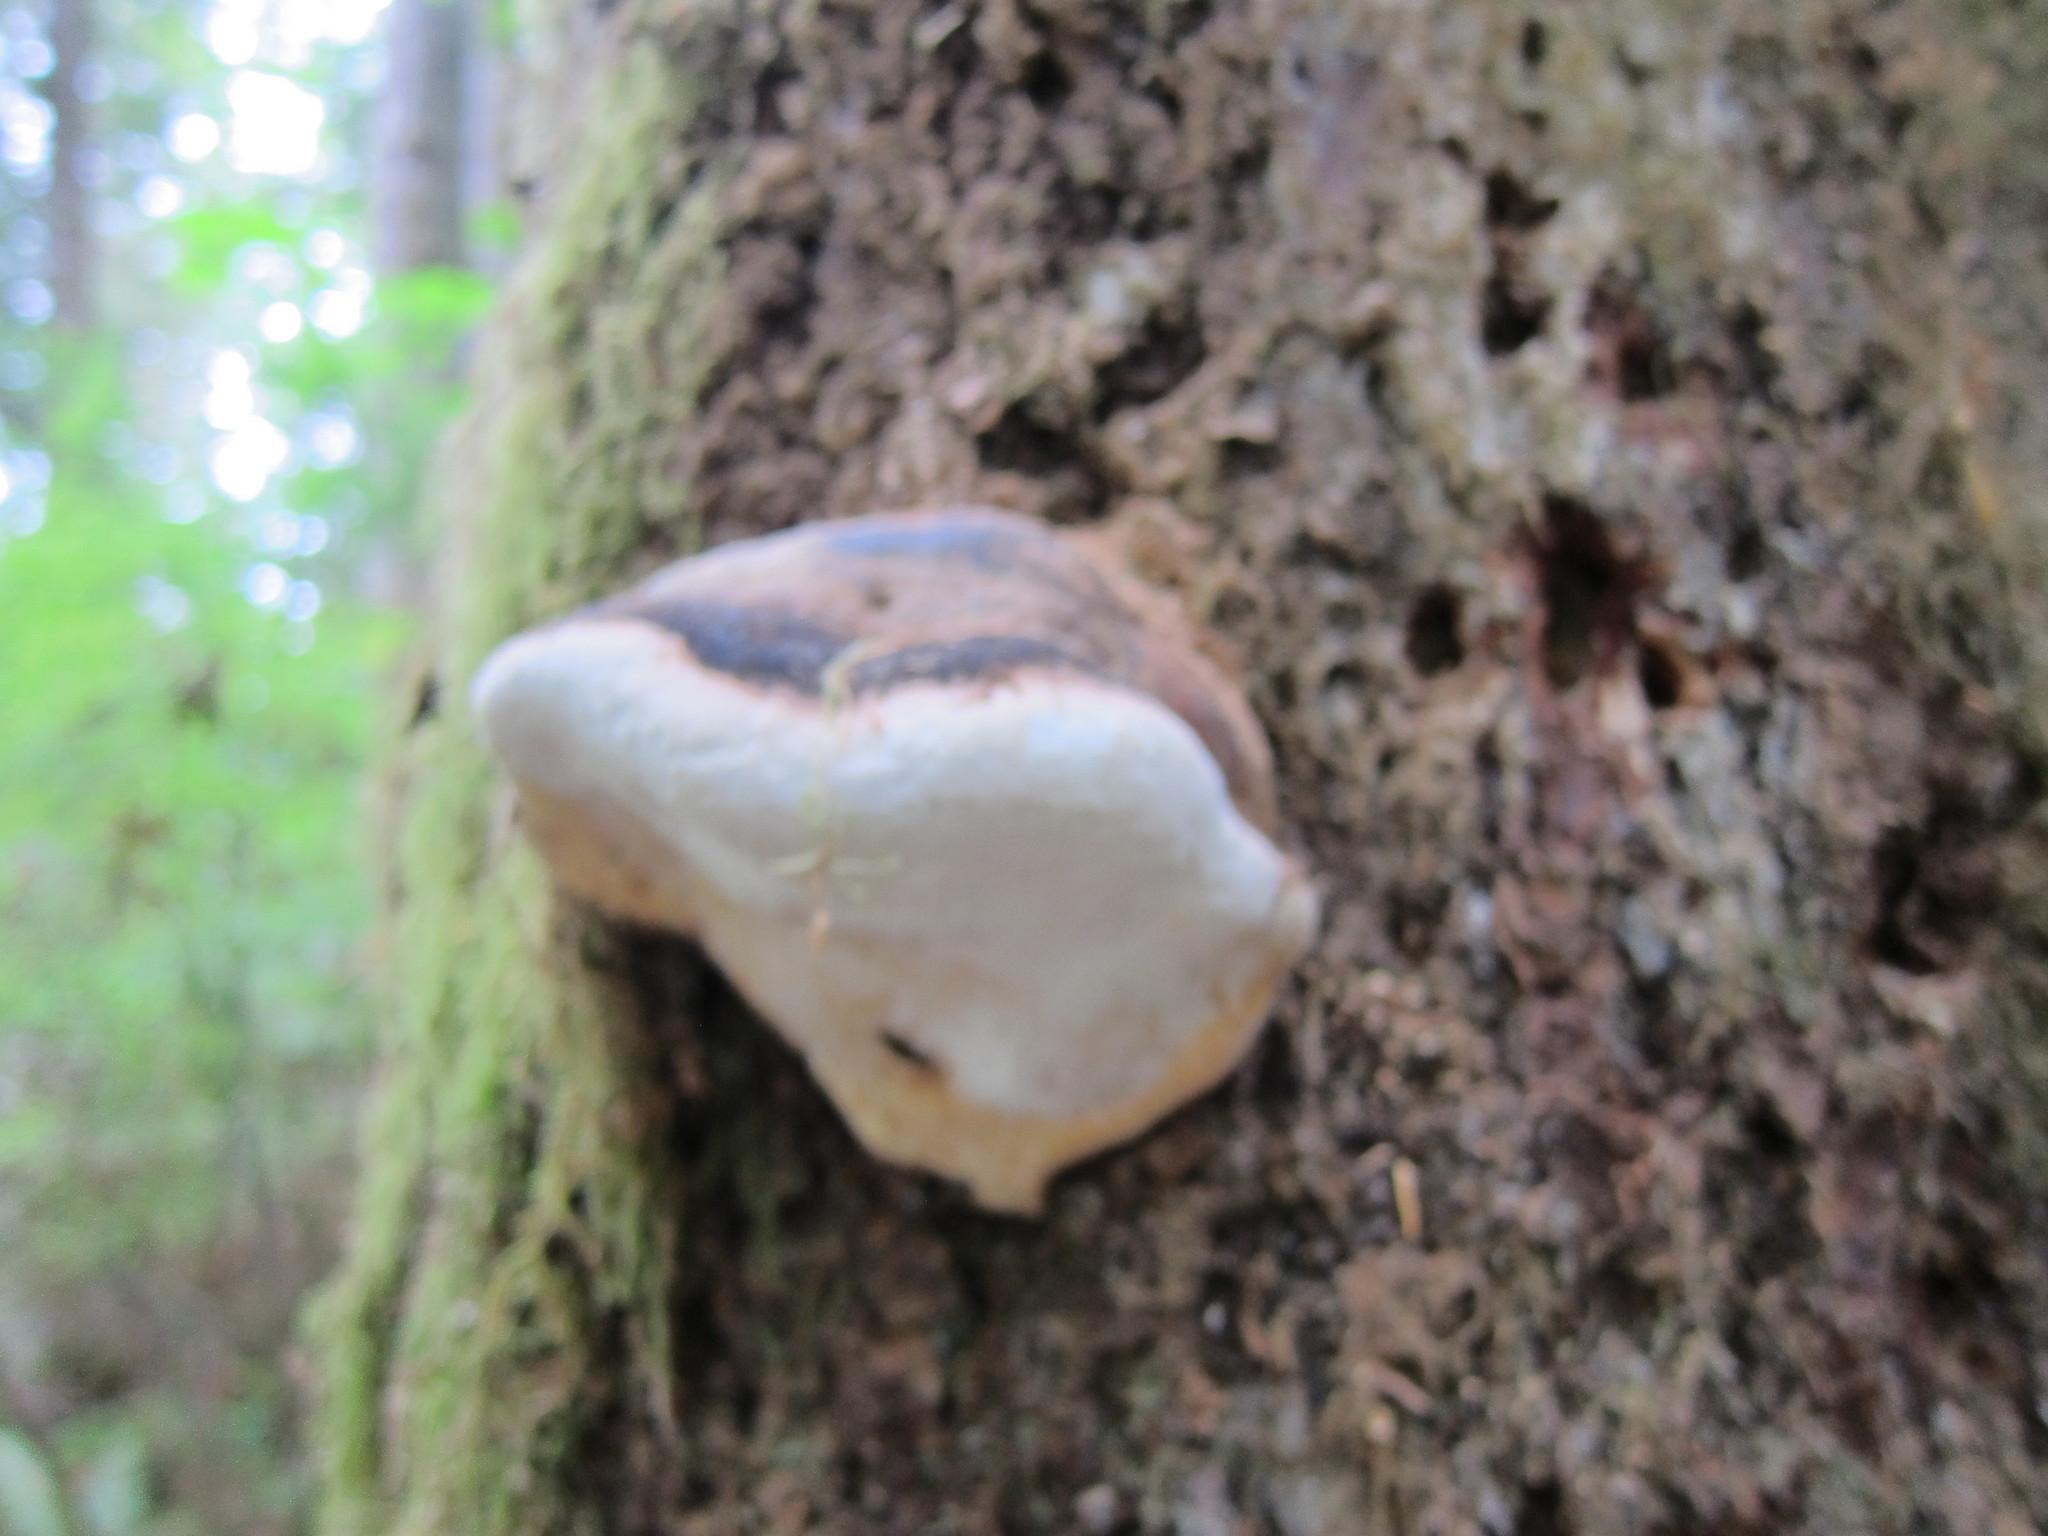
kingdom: Fungi
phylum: Basidiomycota
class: Agaricomycetes
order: Polyporales
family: Fomitopsidaceae
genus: Fomitopsis
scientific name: Fomitopsis mounceae
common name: Northern red belt
